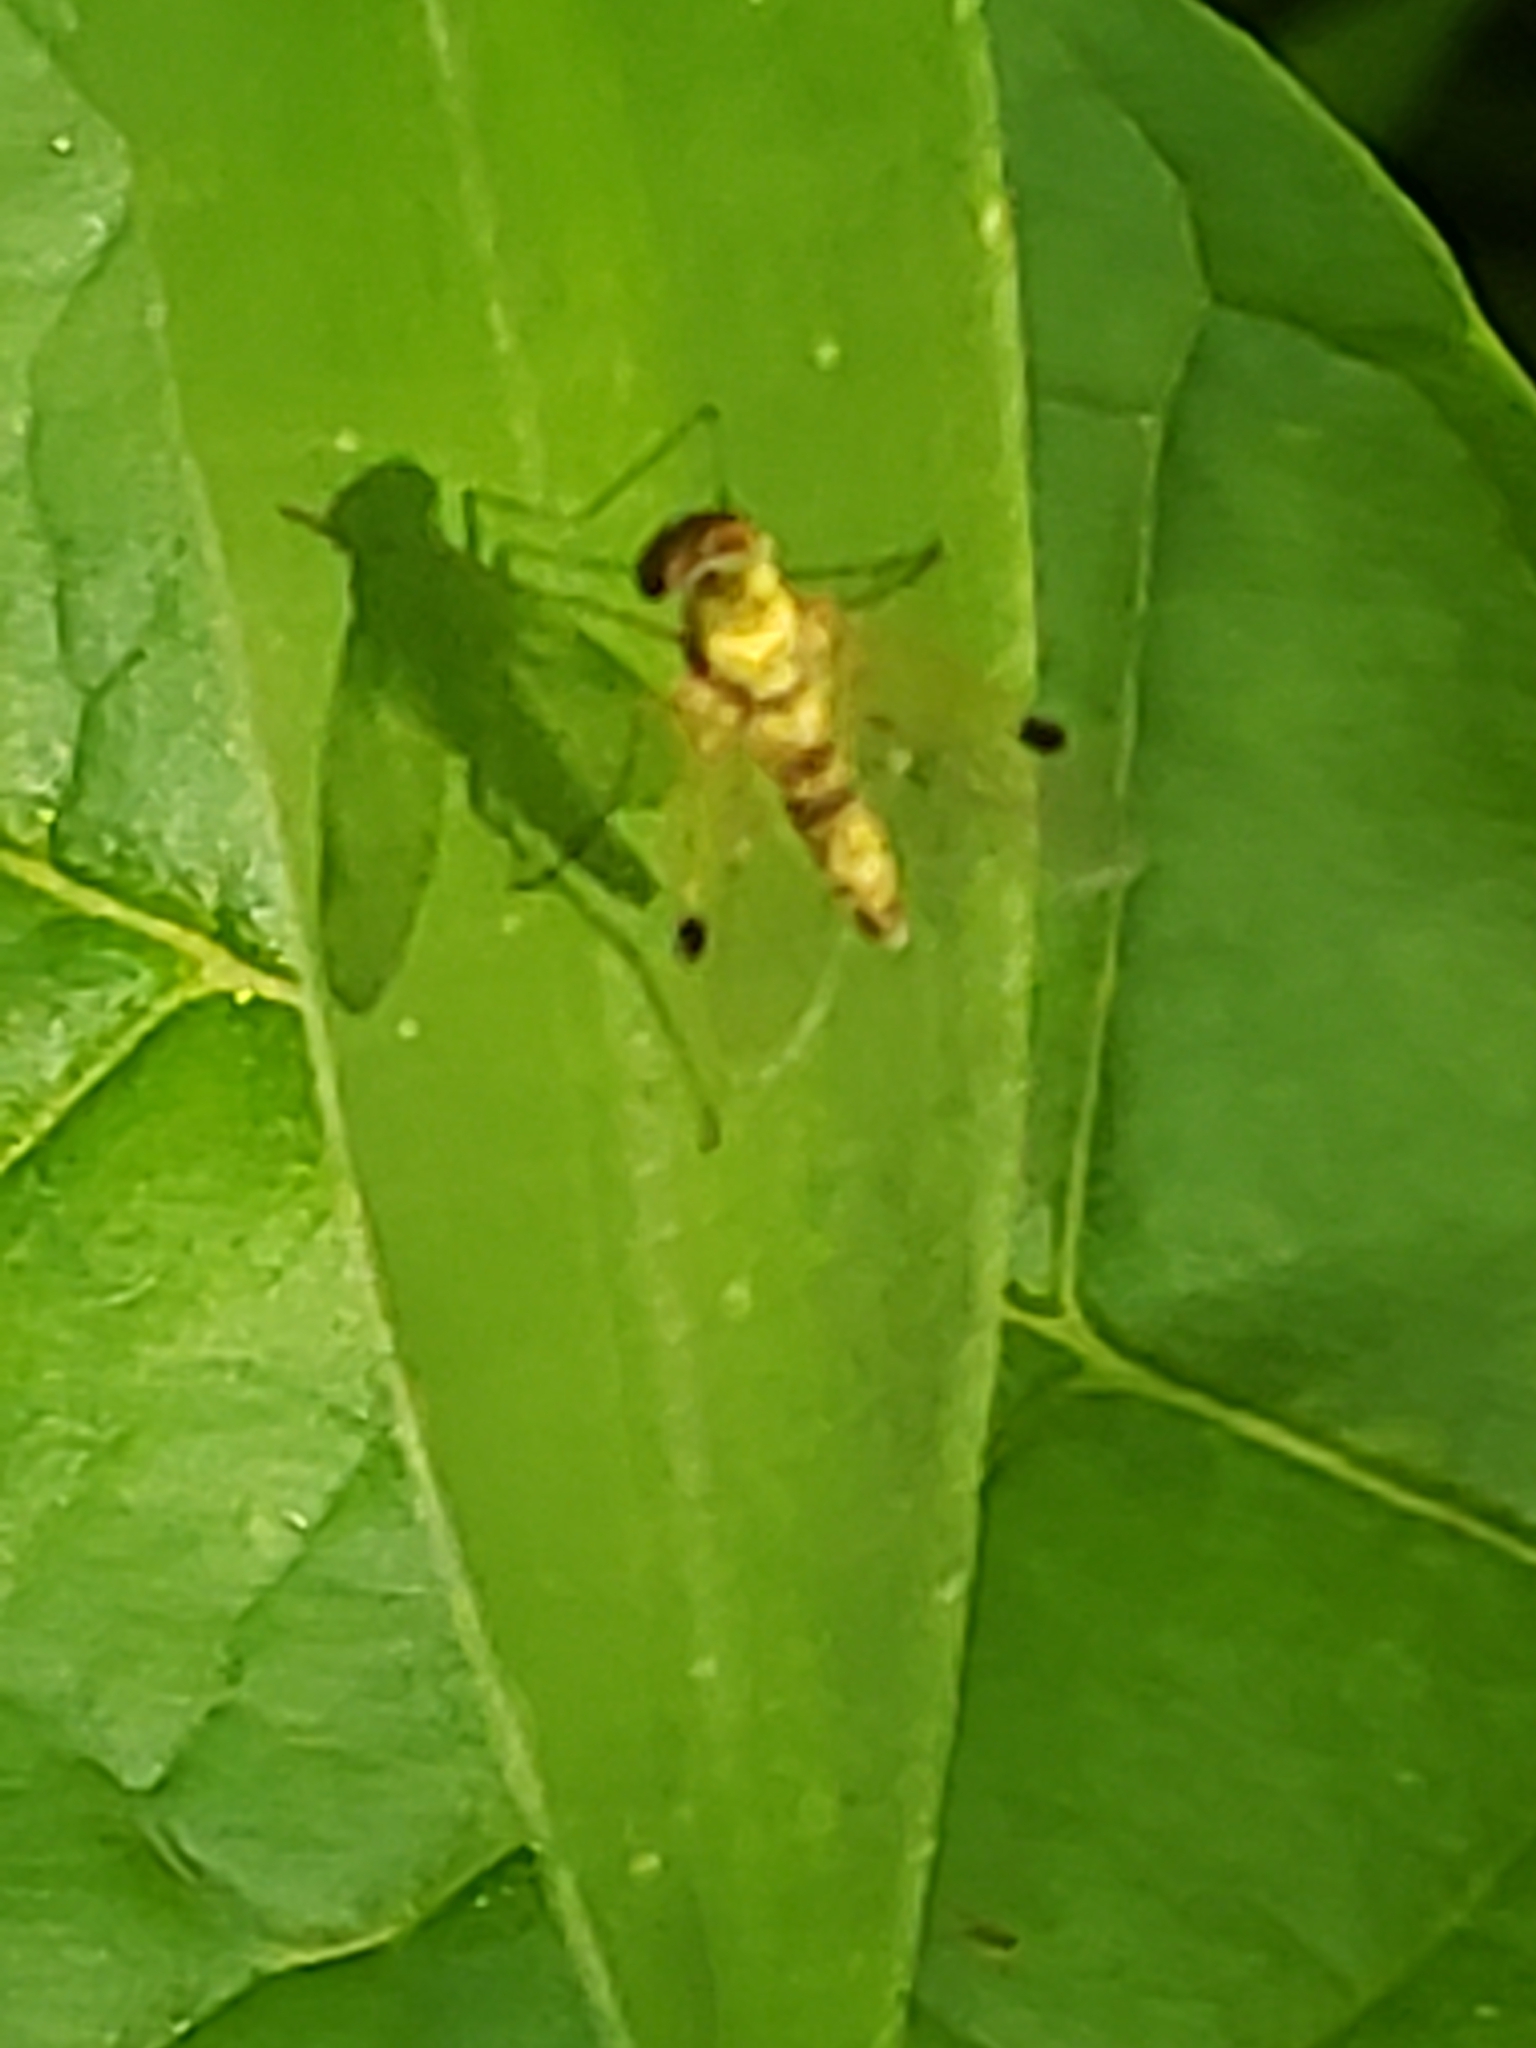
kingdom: Animalia
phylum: Arthropoda
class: Insecta
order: Diptera
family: Rhagionidae
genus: Chrysopilus
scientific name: Chrysopilus modestus
